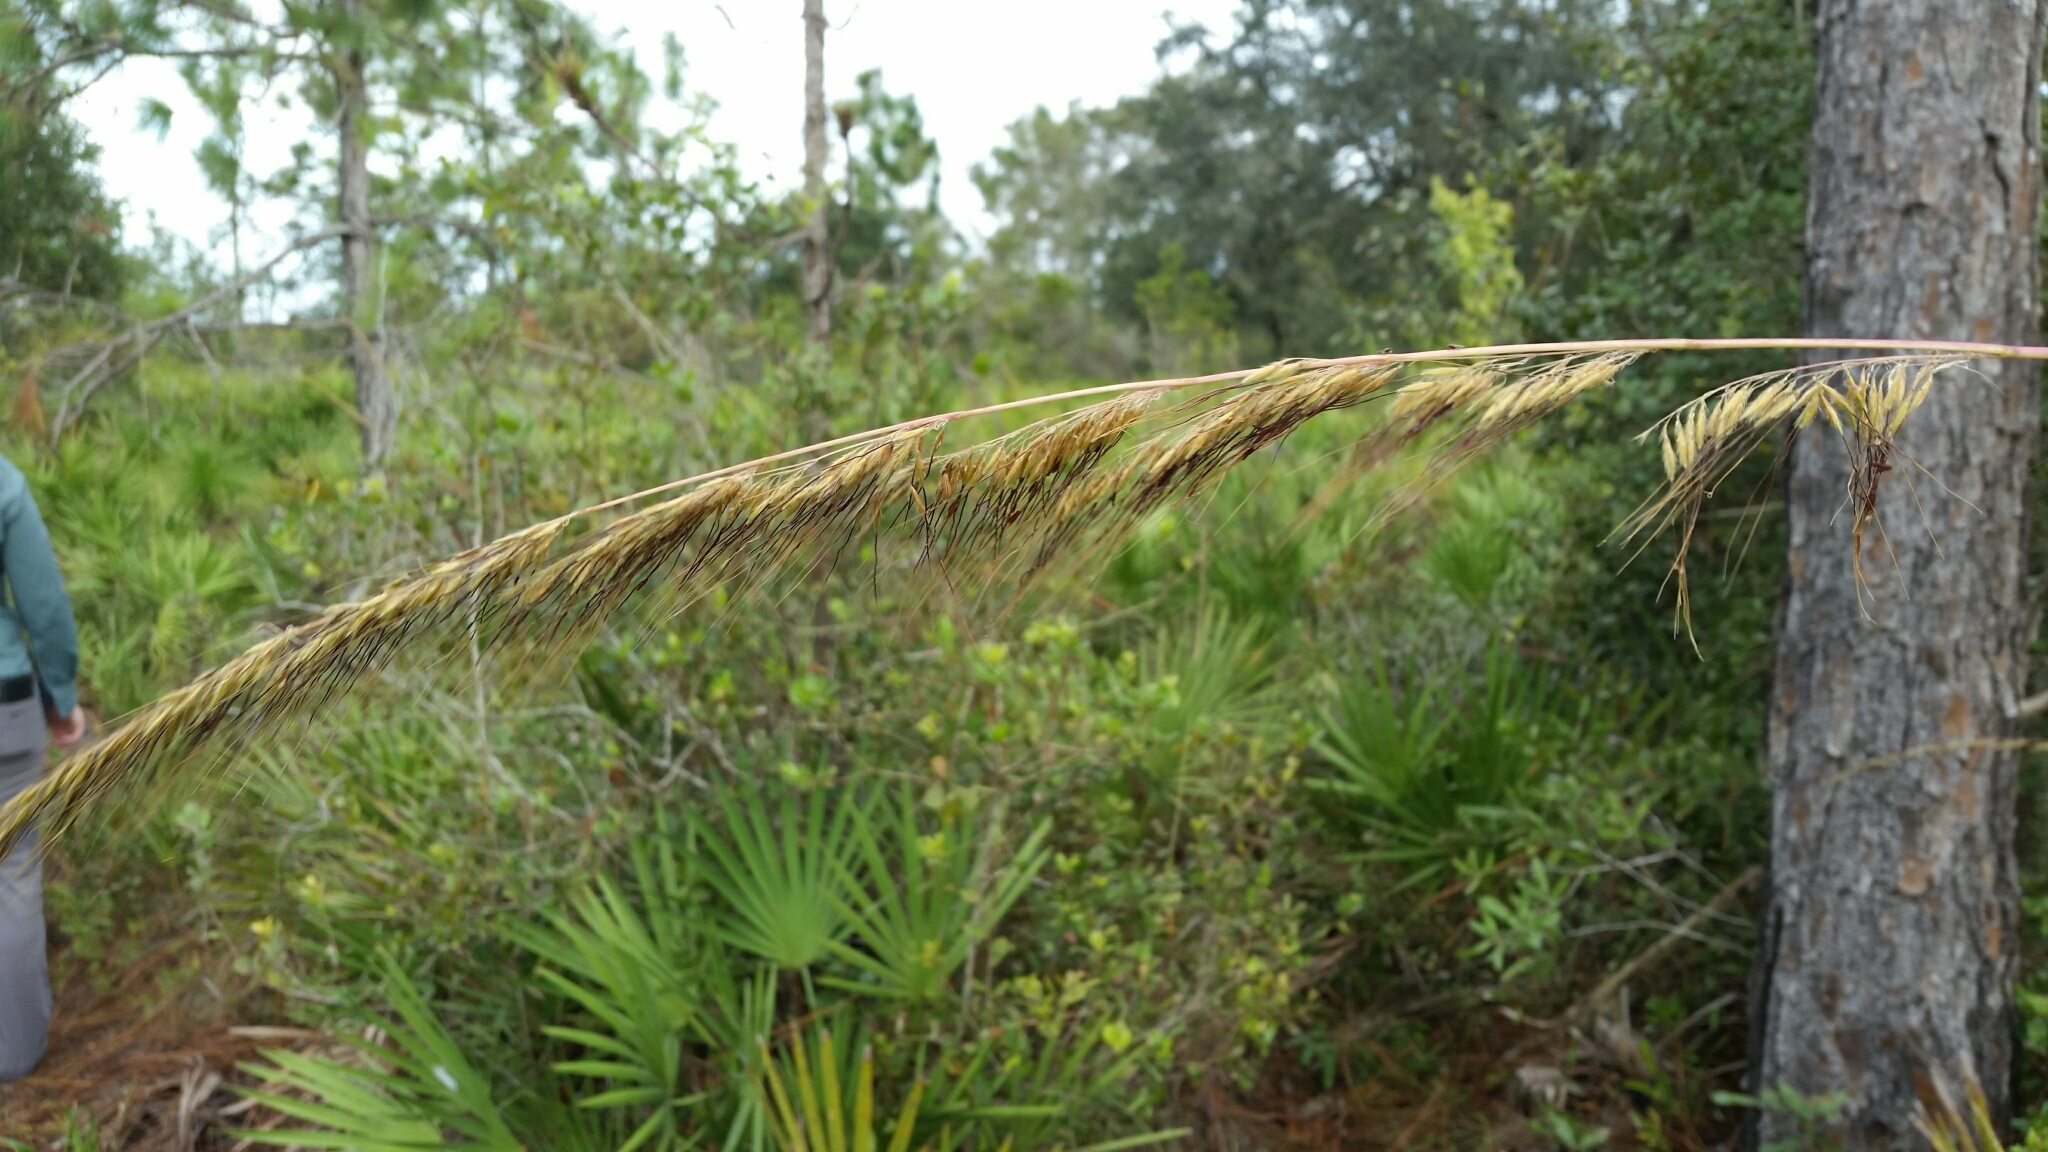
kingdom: Plantae
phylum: Tracheophyta
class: Liliopsida
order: Poales
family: Poaceae
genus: Sorghastrum
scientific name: Sorghastrum secundum
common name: Lopsided indian grass
